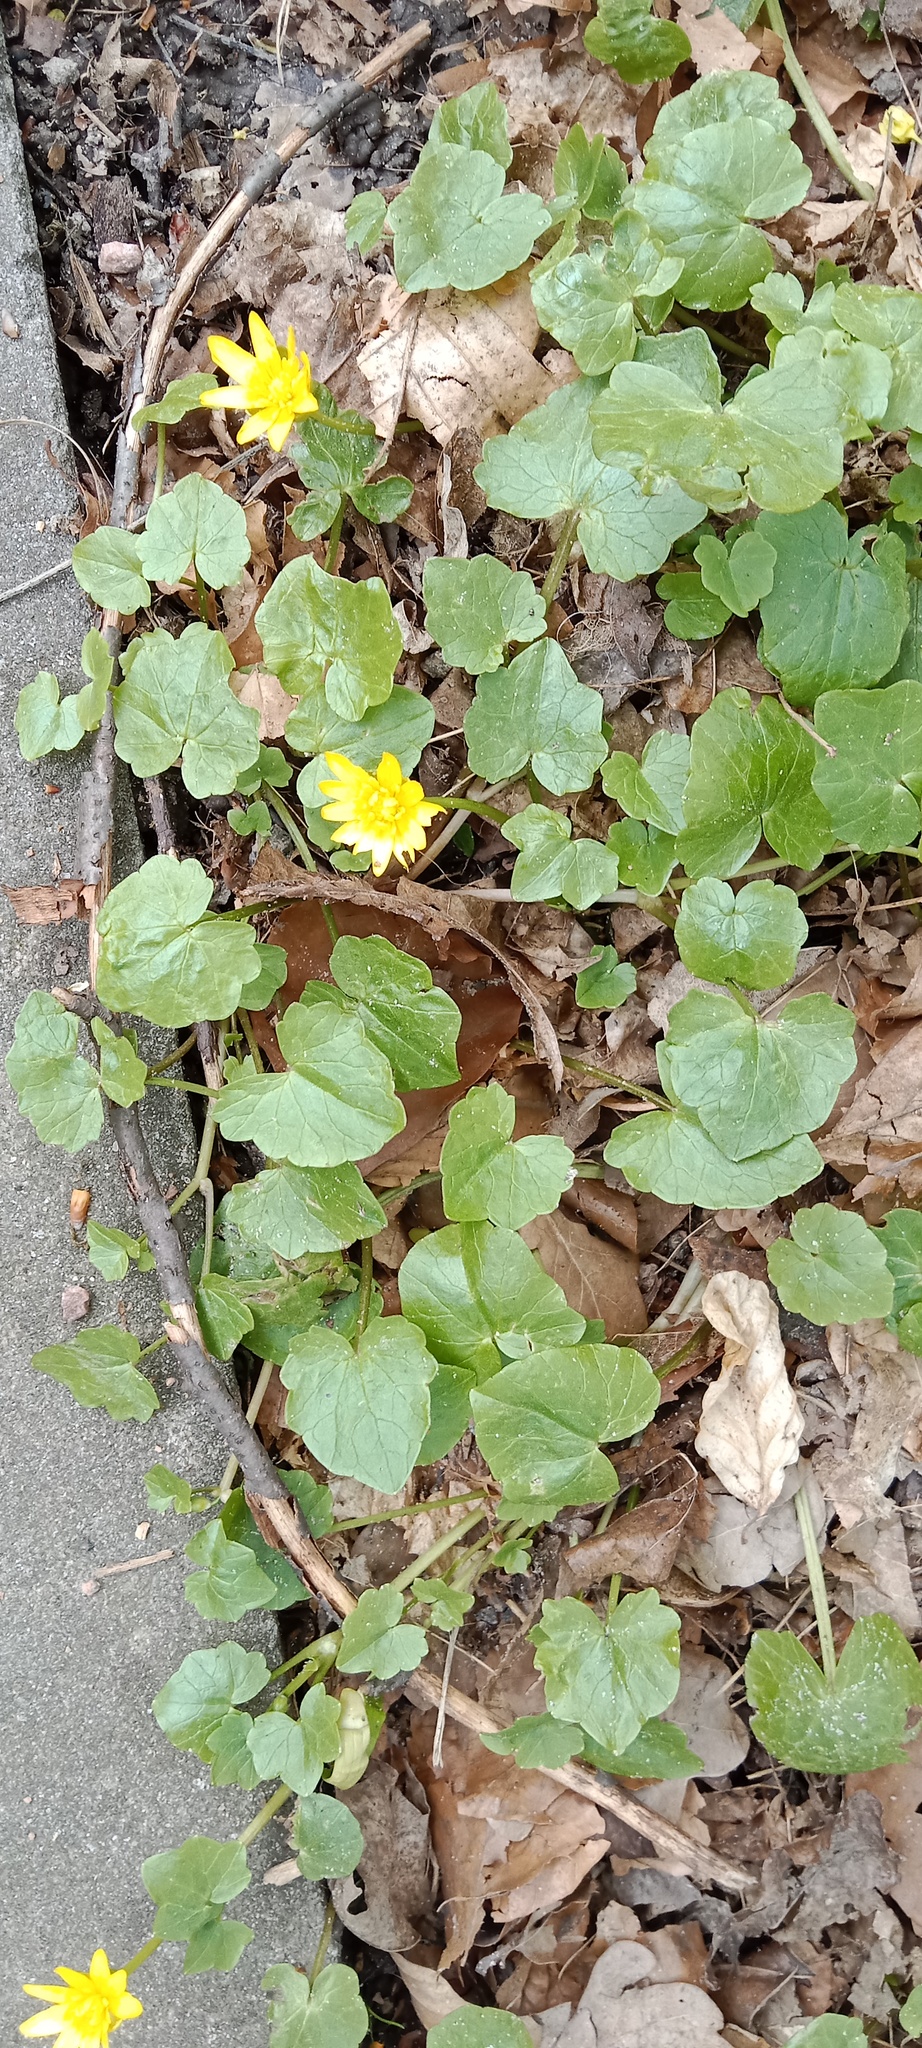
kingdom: Plantae
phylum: Tracheophyta
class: Magnoliopsida
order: Ranunculales
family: Ranunculaceae
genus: Ficaria
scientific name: Ficaria verna
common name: Lesser celandine
